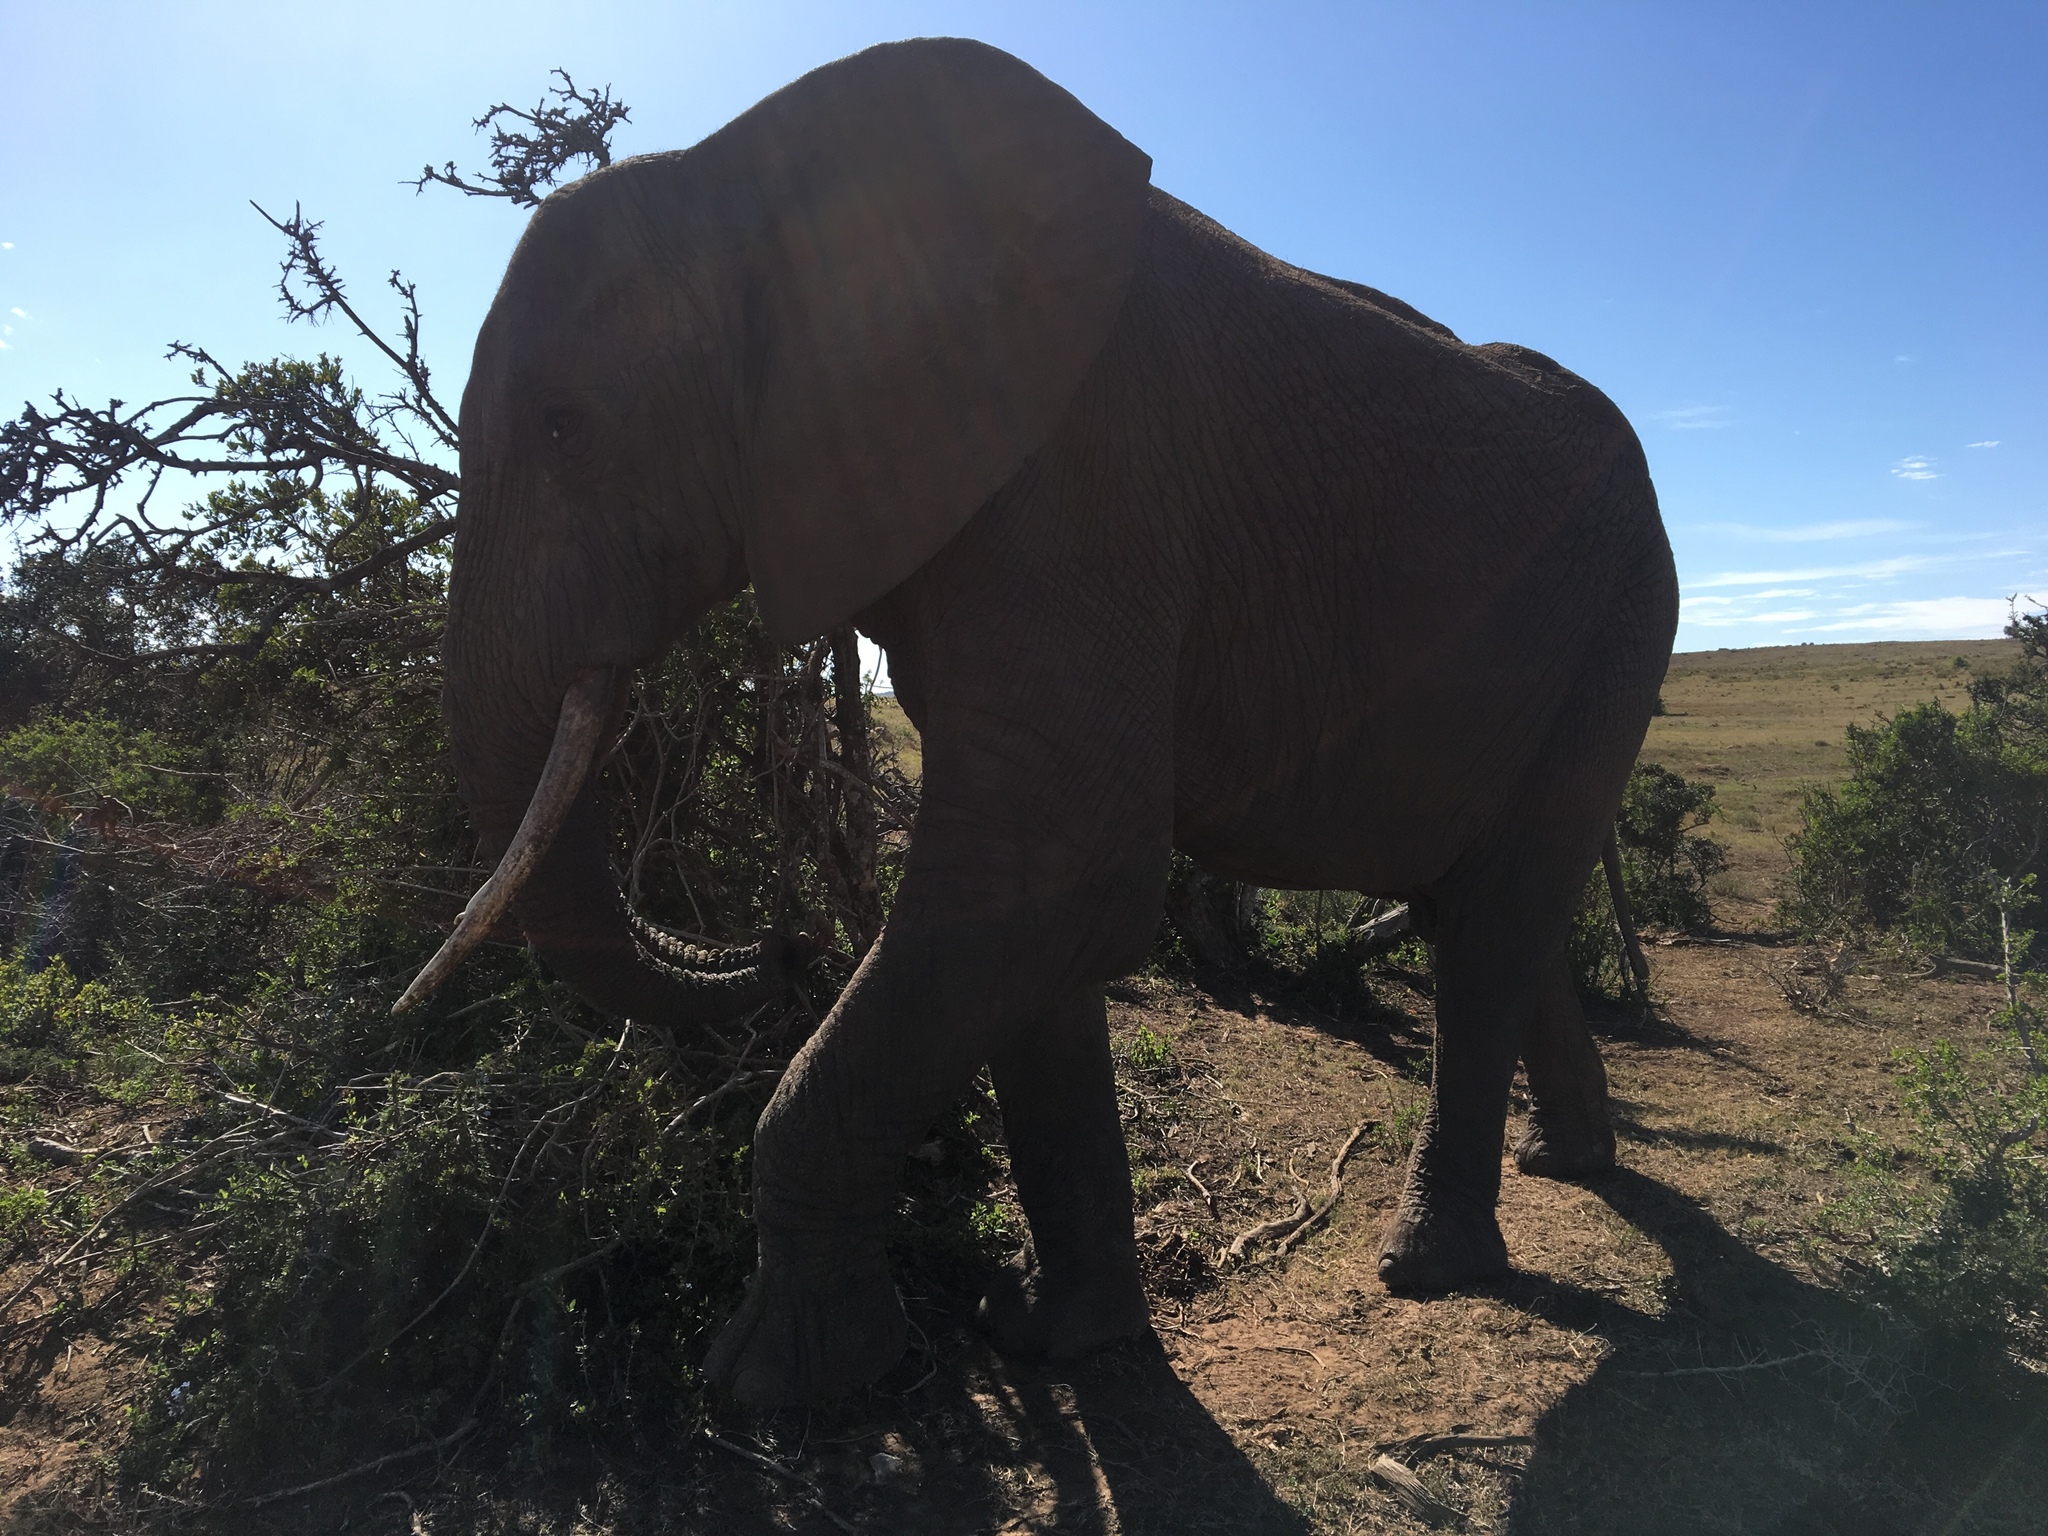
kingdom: Animalia
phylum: Chordata
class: Mammalia
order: Proboscidea
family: Elephantidae
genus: Loxodonta
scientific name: Loxodonta africana
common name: African elephant
